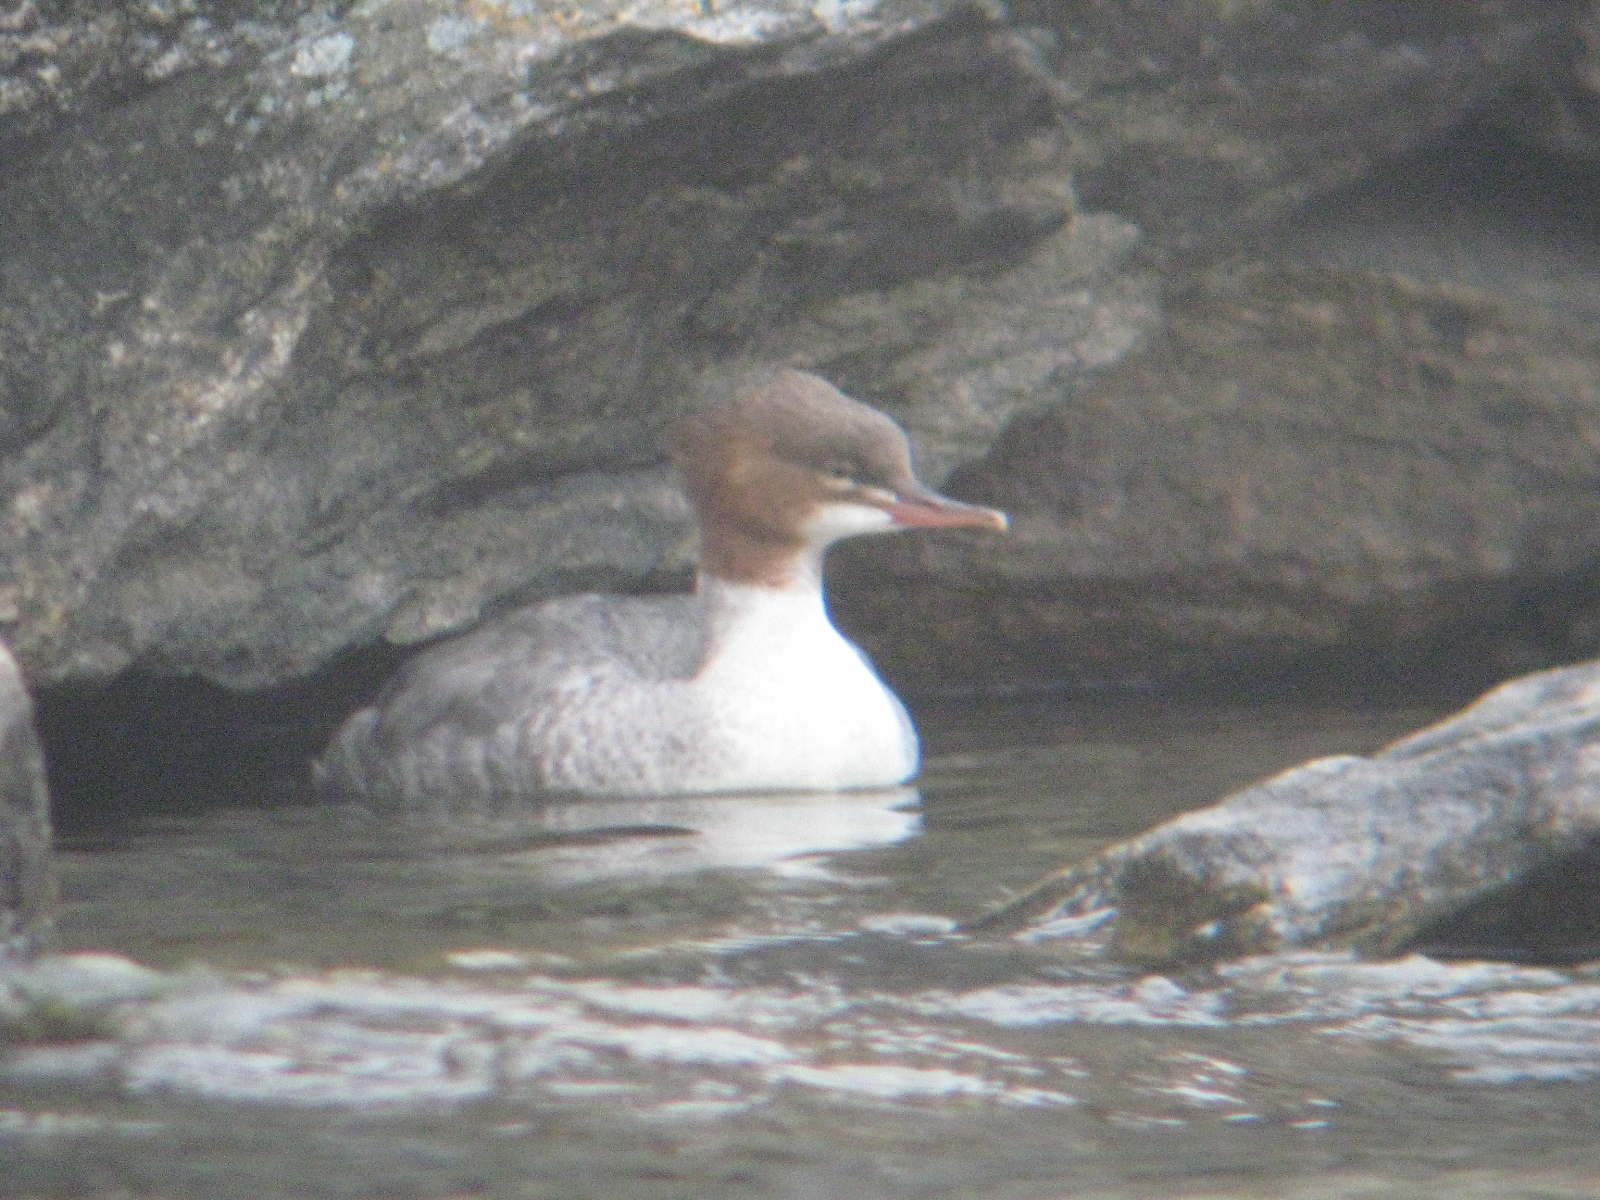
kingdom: Animalia
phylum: Chordata
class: Aves
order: Anseriformes
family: Anatidae
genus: Mergus
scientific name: Mergus merganser
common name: Common merganser
